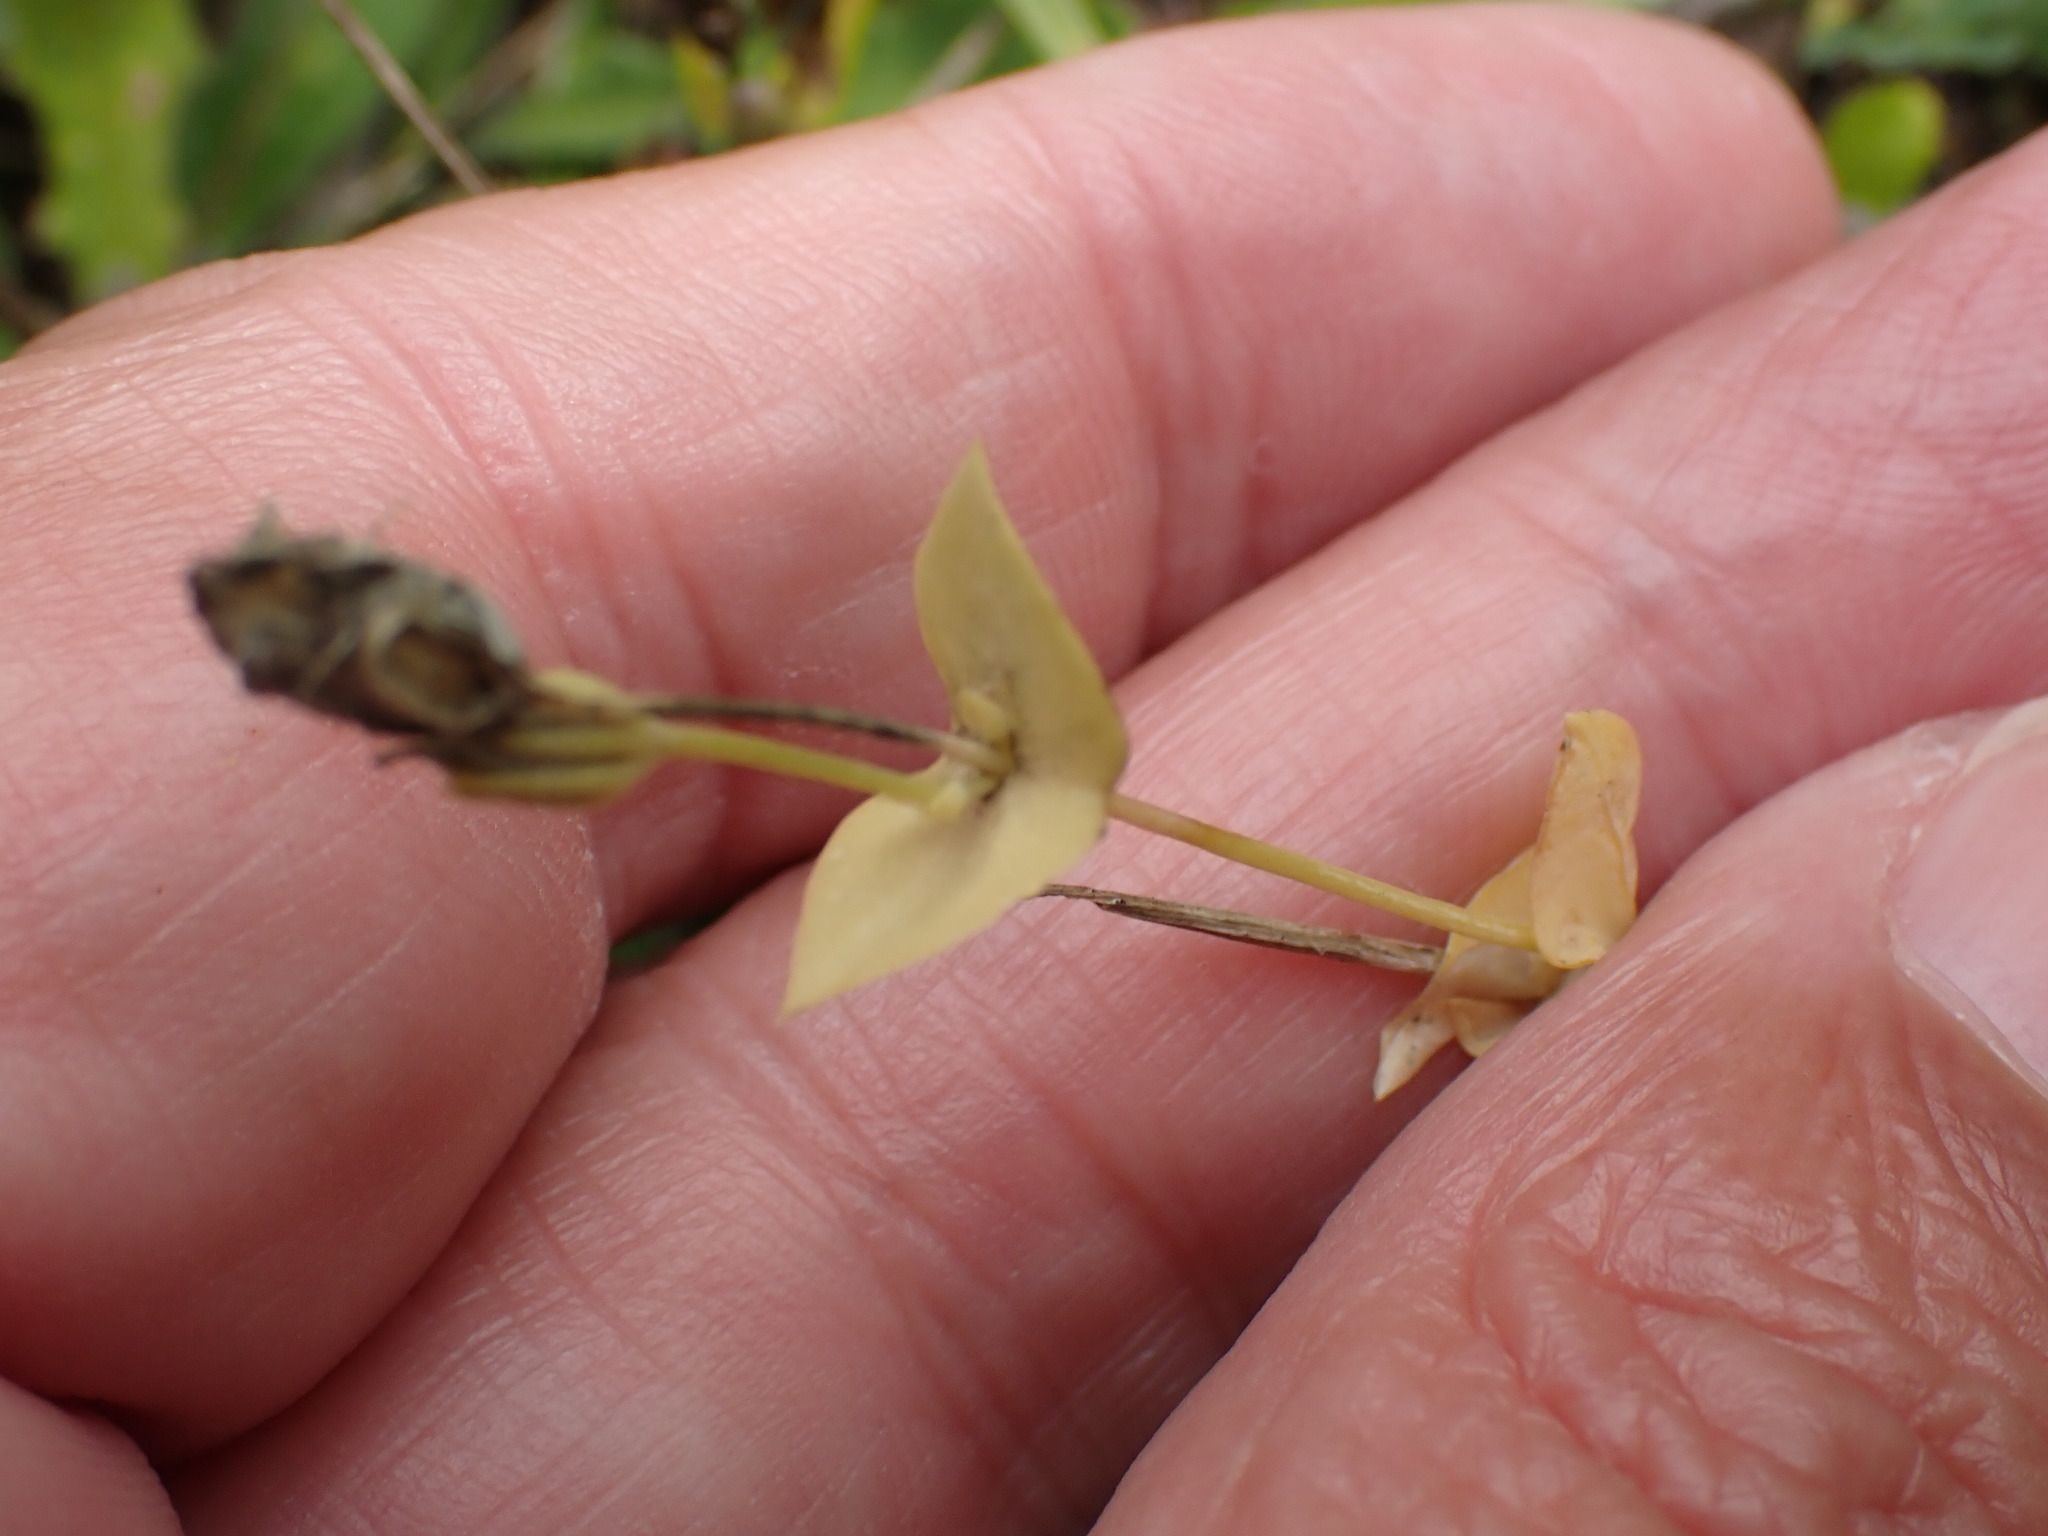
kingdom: Plantae
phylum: Tracheophyta
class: Magnoliopsida
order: Gentianales
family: Gentianaceae
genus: Blackstonia
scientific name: Blackstonia perfoliata
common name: Yellow-wort
